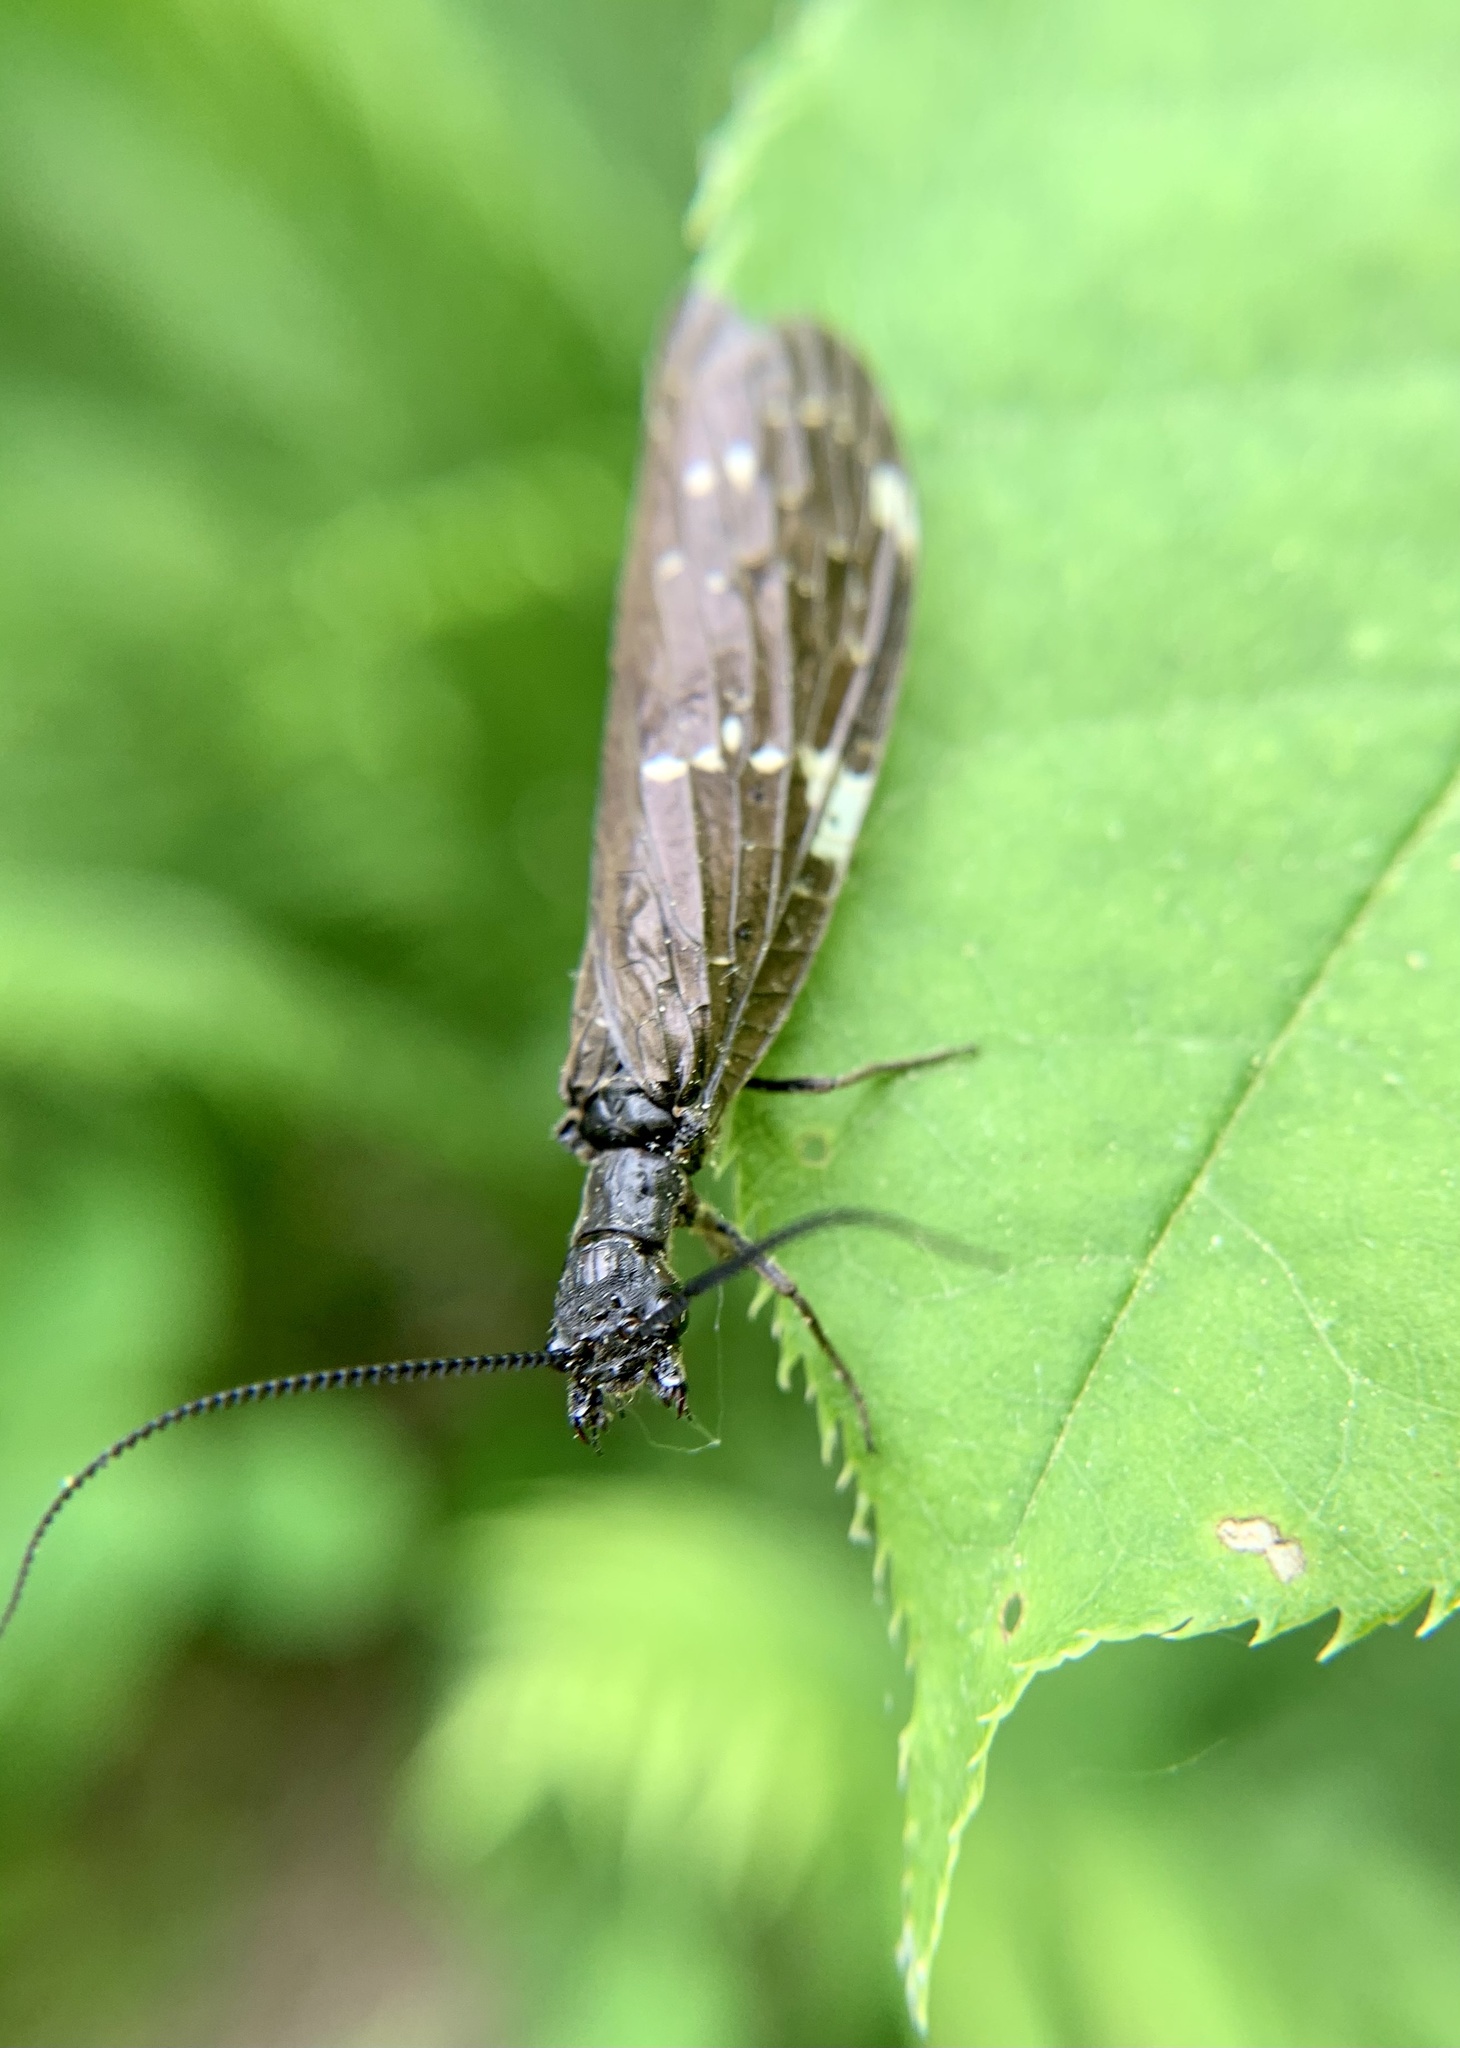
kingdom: Animalia
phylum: Arthropoda
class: Insecta
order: Megaloptera
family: Corydalidae
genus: Nigronia
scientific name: Nigronia serricornis
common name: Serrate dark fishfly
